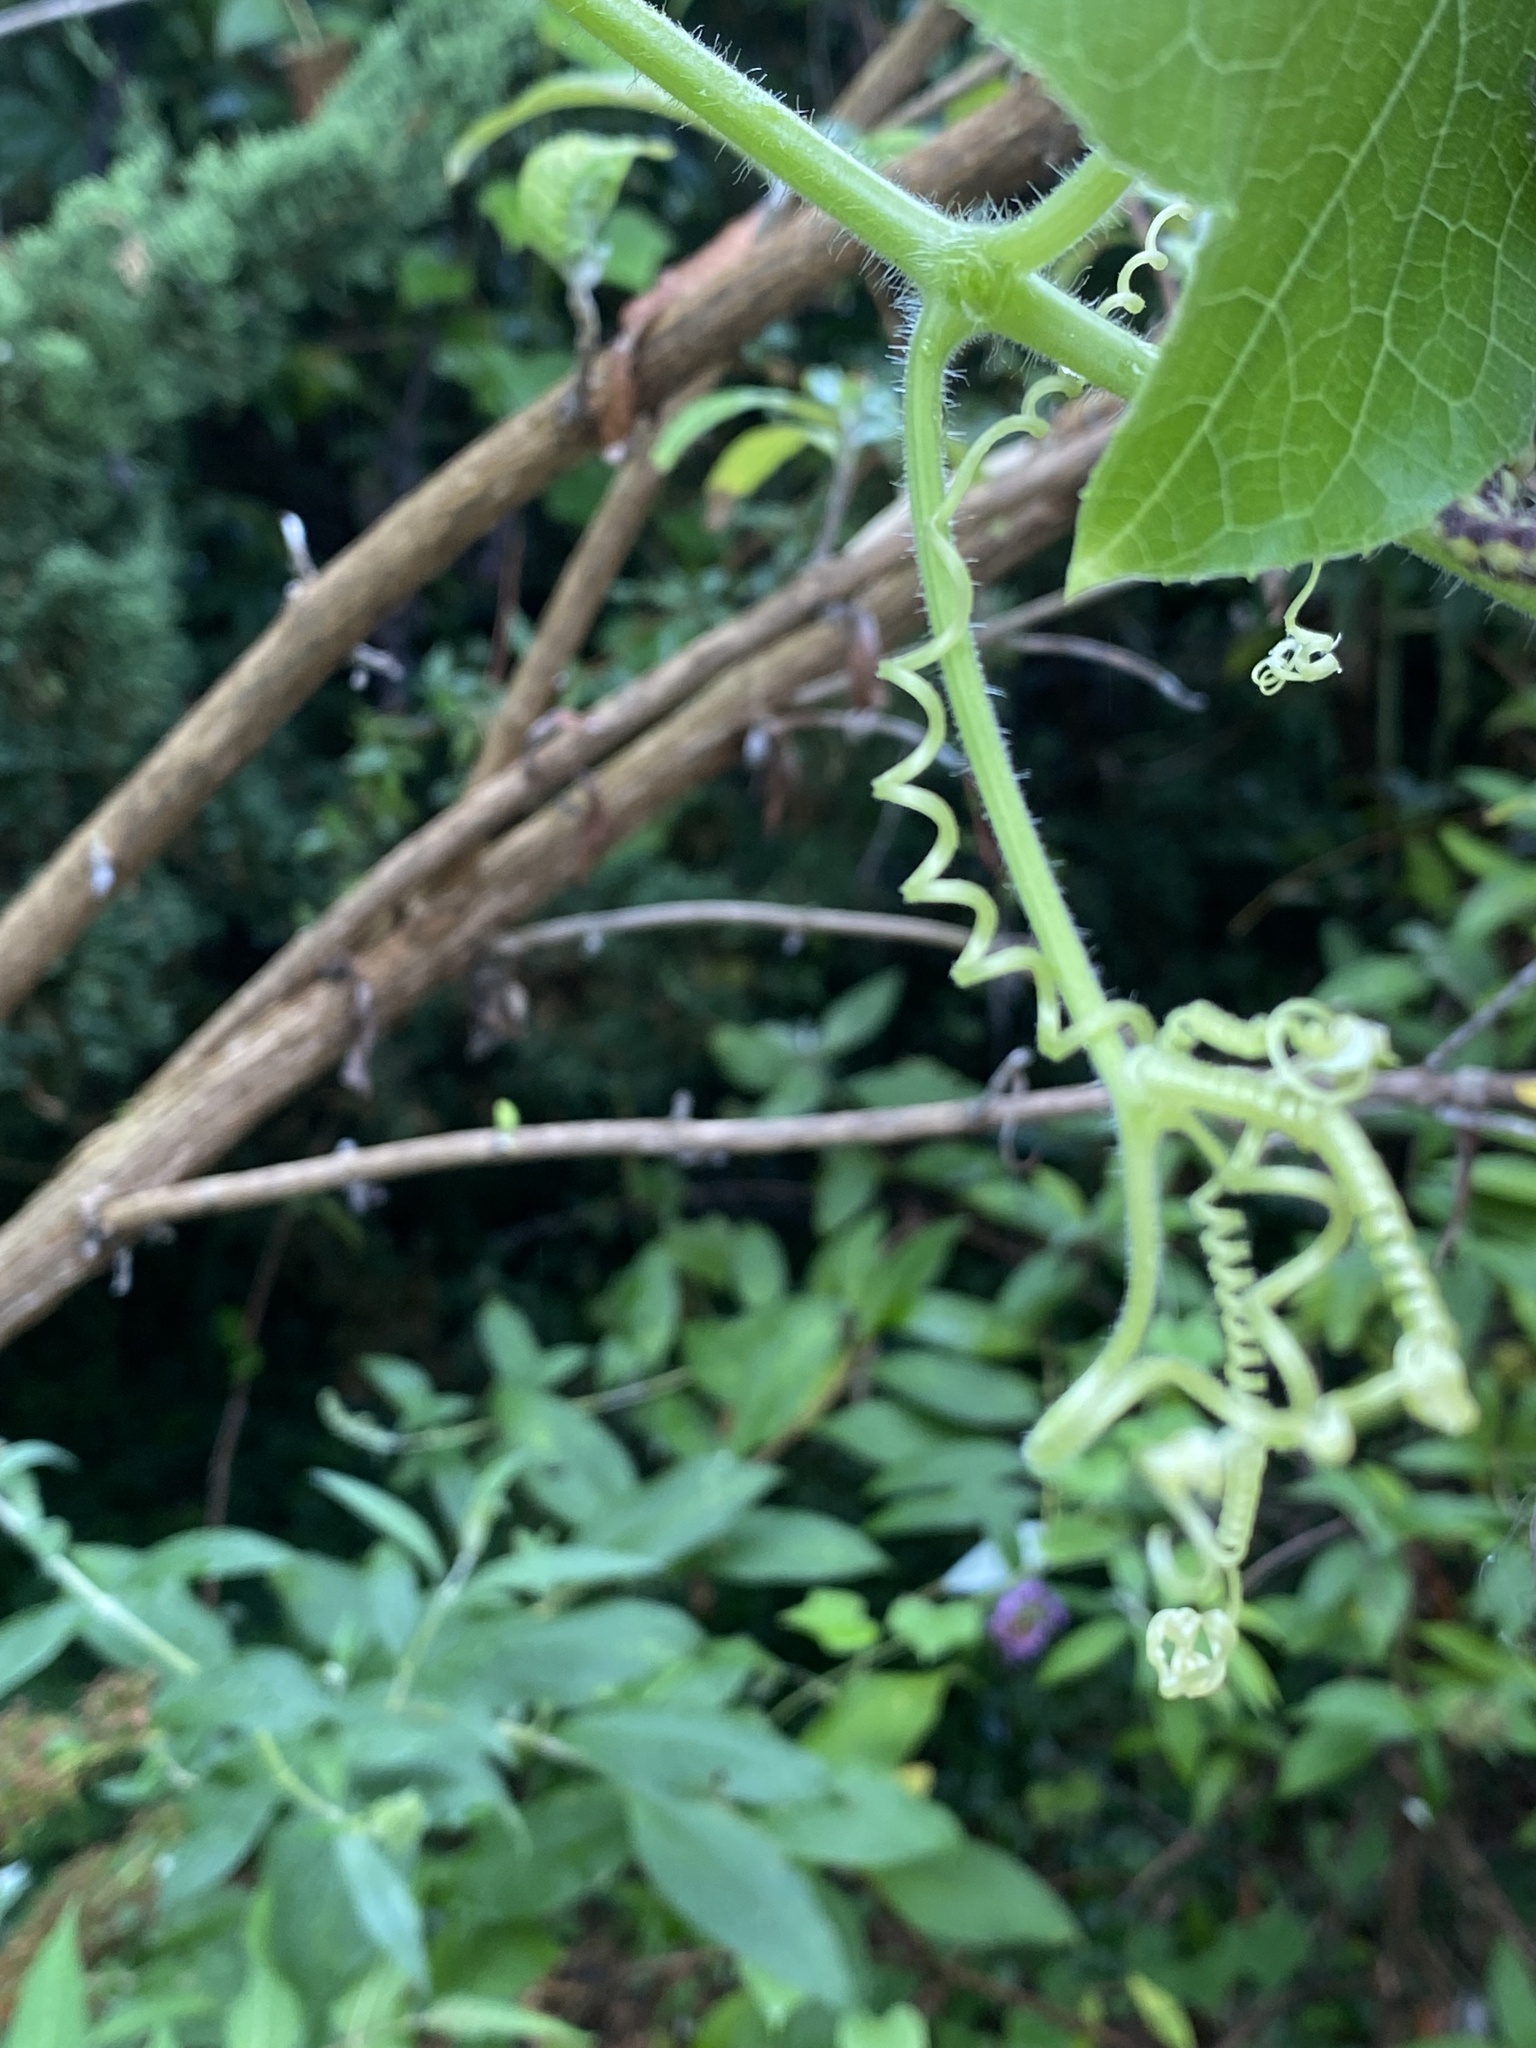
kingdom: Plantae
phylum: Tracheophyta
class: Magnoliopsida
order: Cucurbitales
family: Cucurbitaceae
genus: Sicyos
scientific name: Sicyos angulatus
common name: Angled burr cucumber
